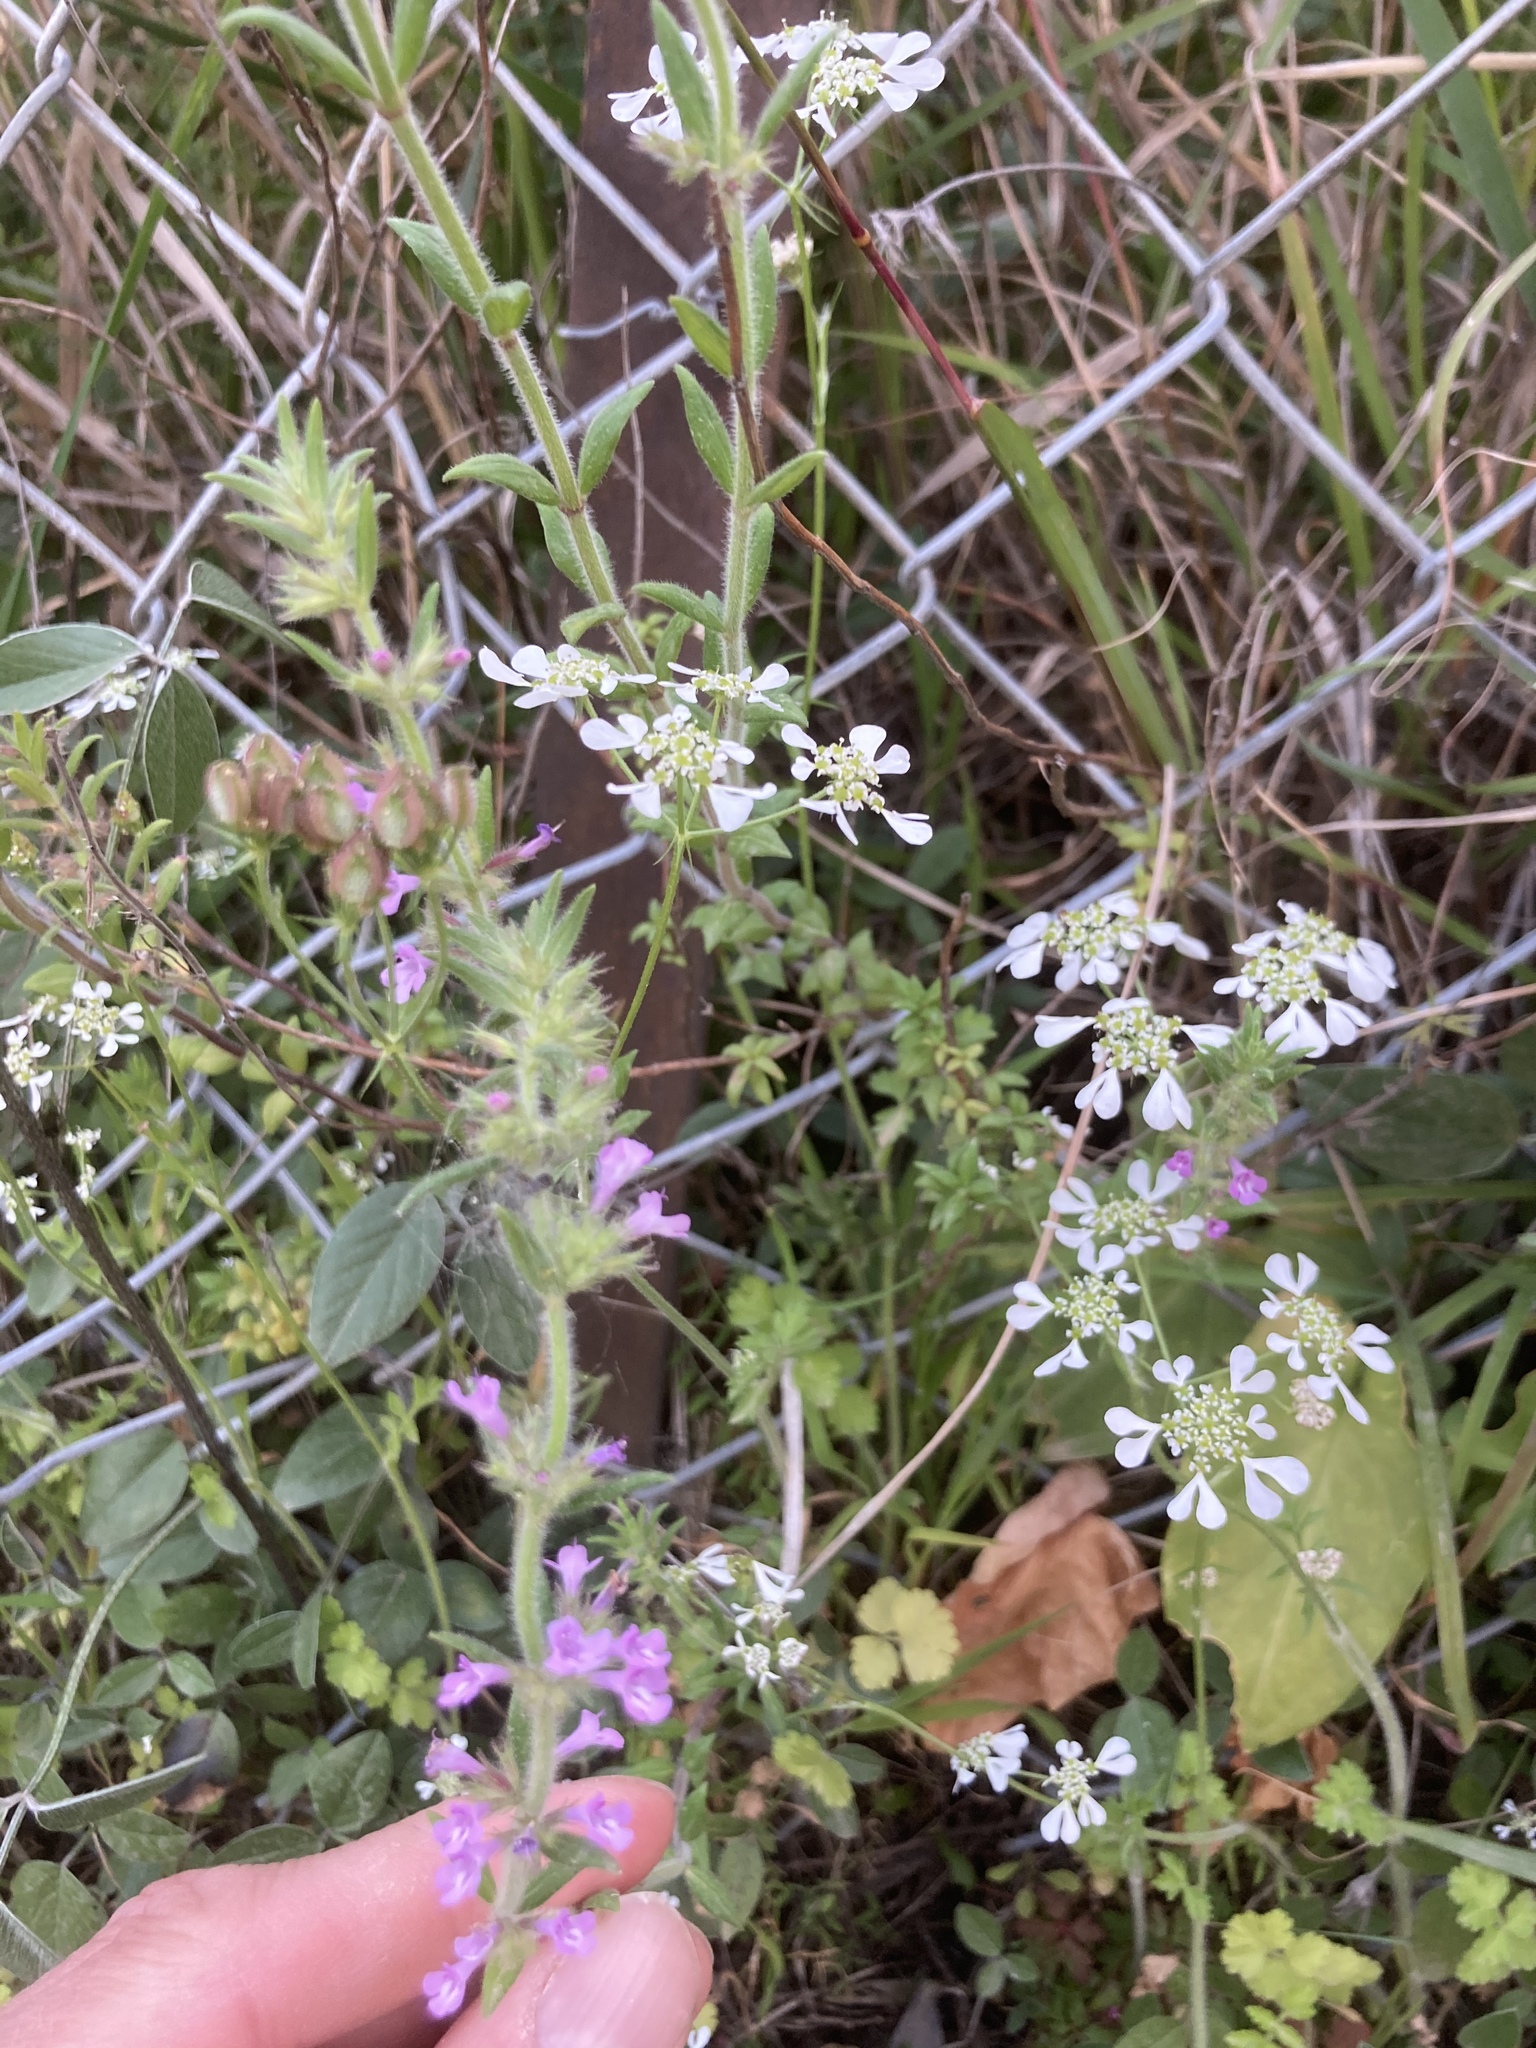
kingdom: Plantae
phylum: Tracheophyta
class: Magnoliopsida
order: Fabales
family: Fabaceae
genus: Bituminaria
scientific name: Bituminaria bituminosa
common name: Arabian pea
